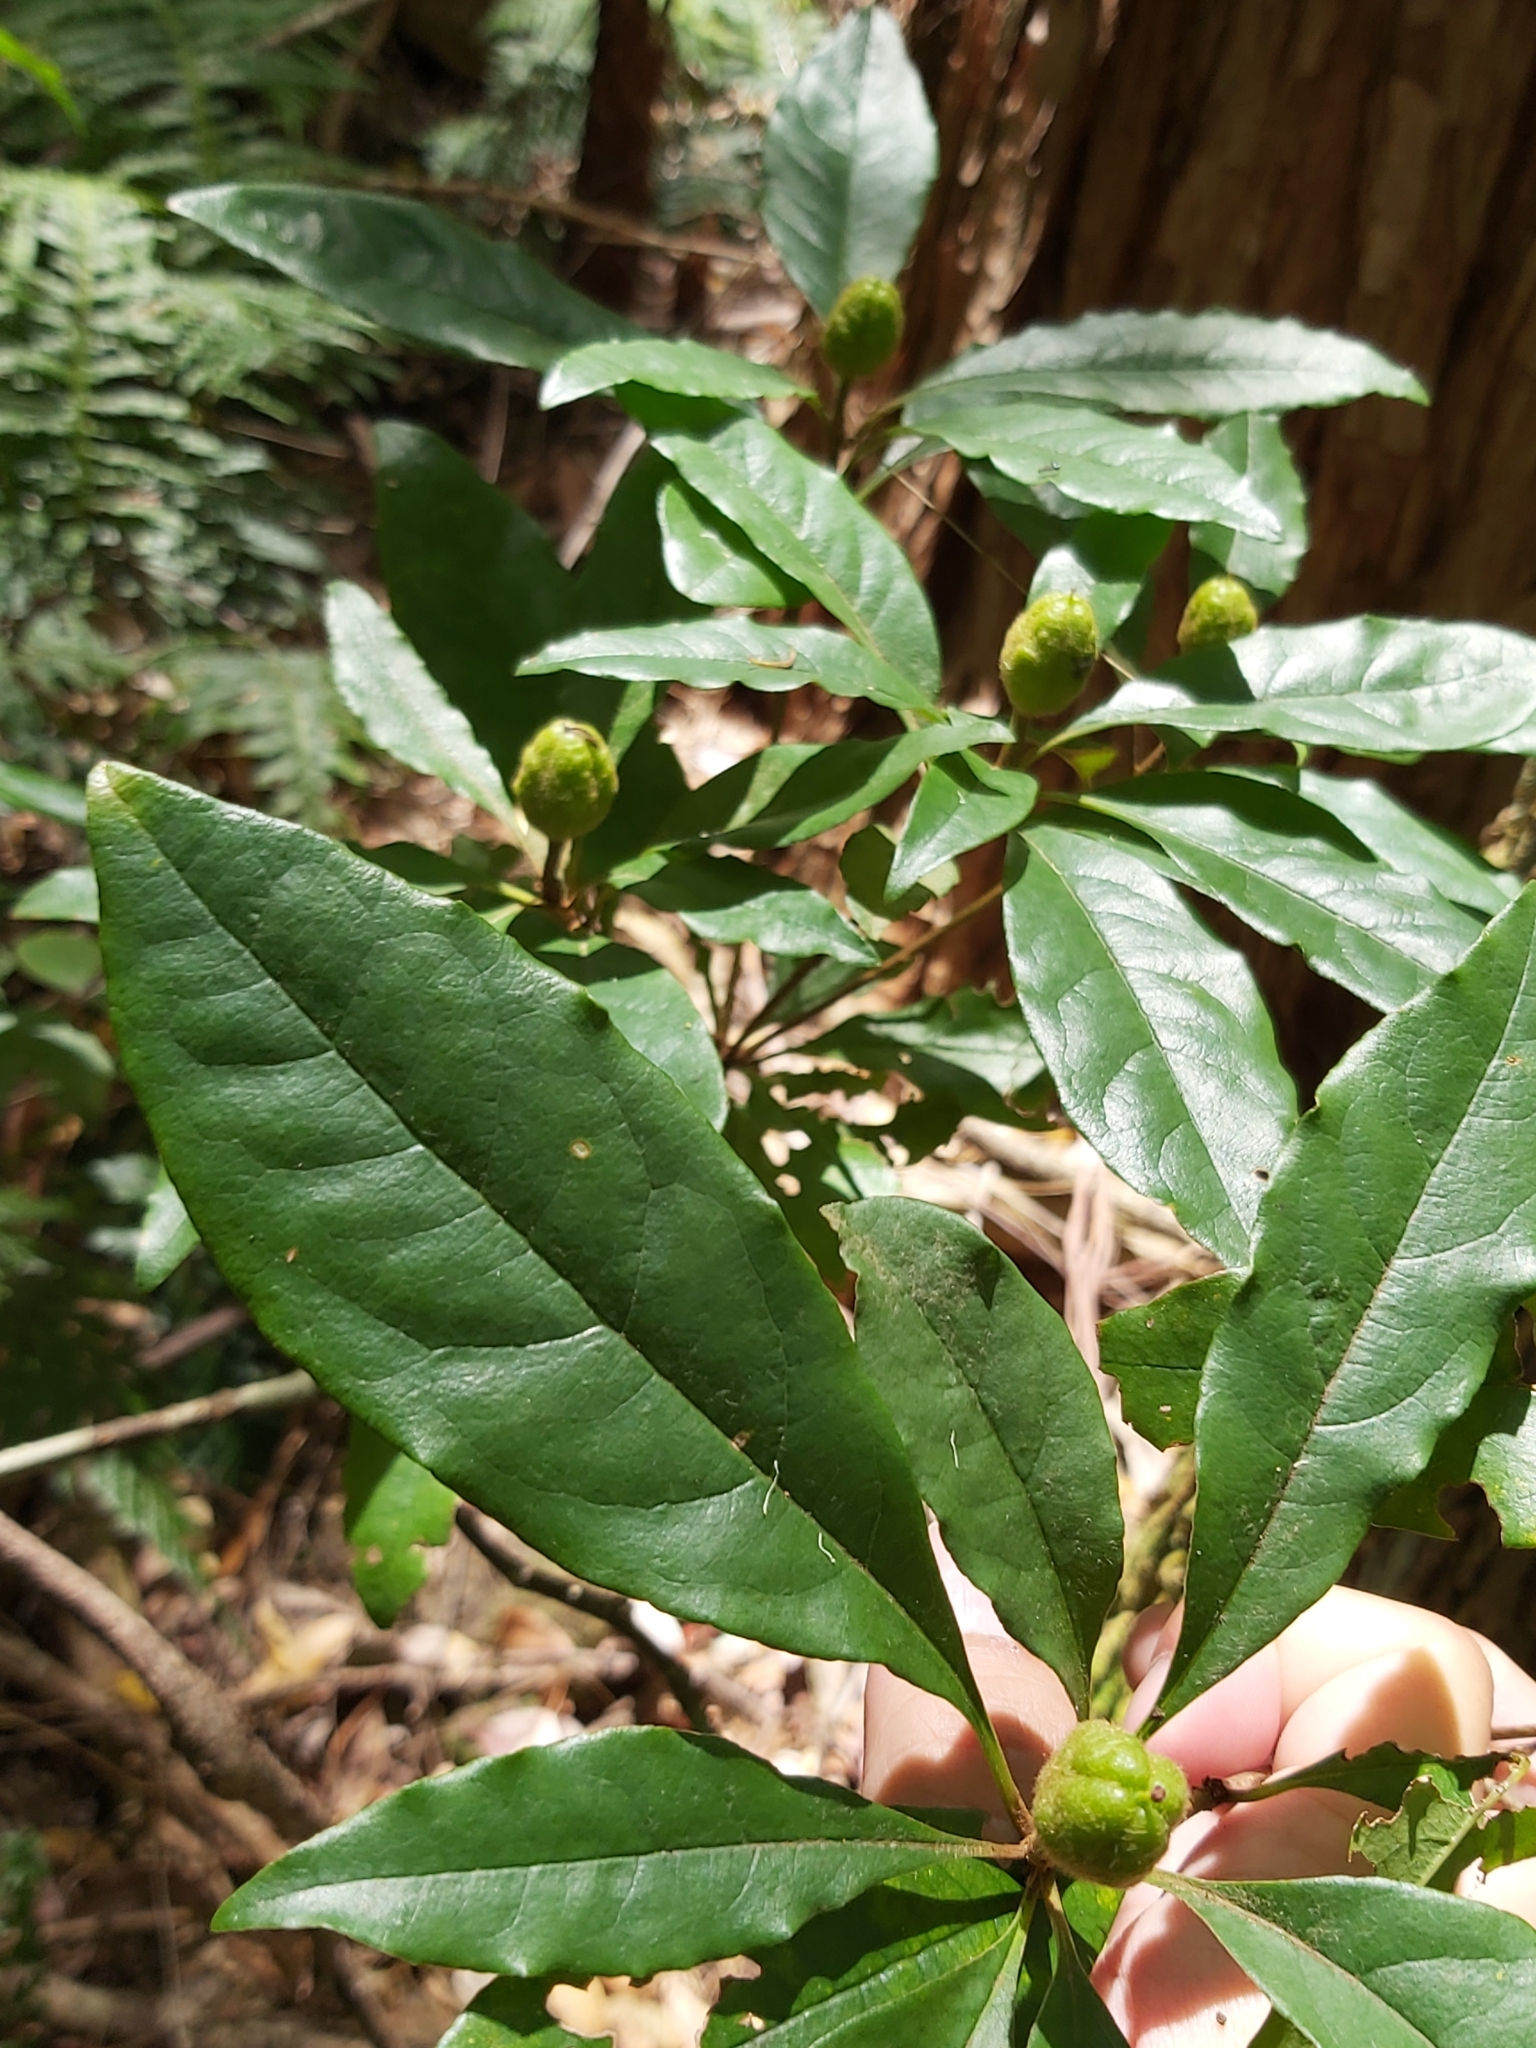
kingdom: Plantae
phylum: Tracheophyta
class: Magnoliopsida
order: Apiales
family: Pittosporaceae
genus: Pittosporum
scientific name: Pittosporum revolutum
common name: Brisbane-laurel
